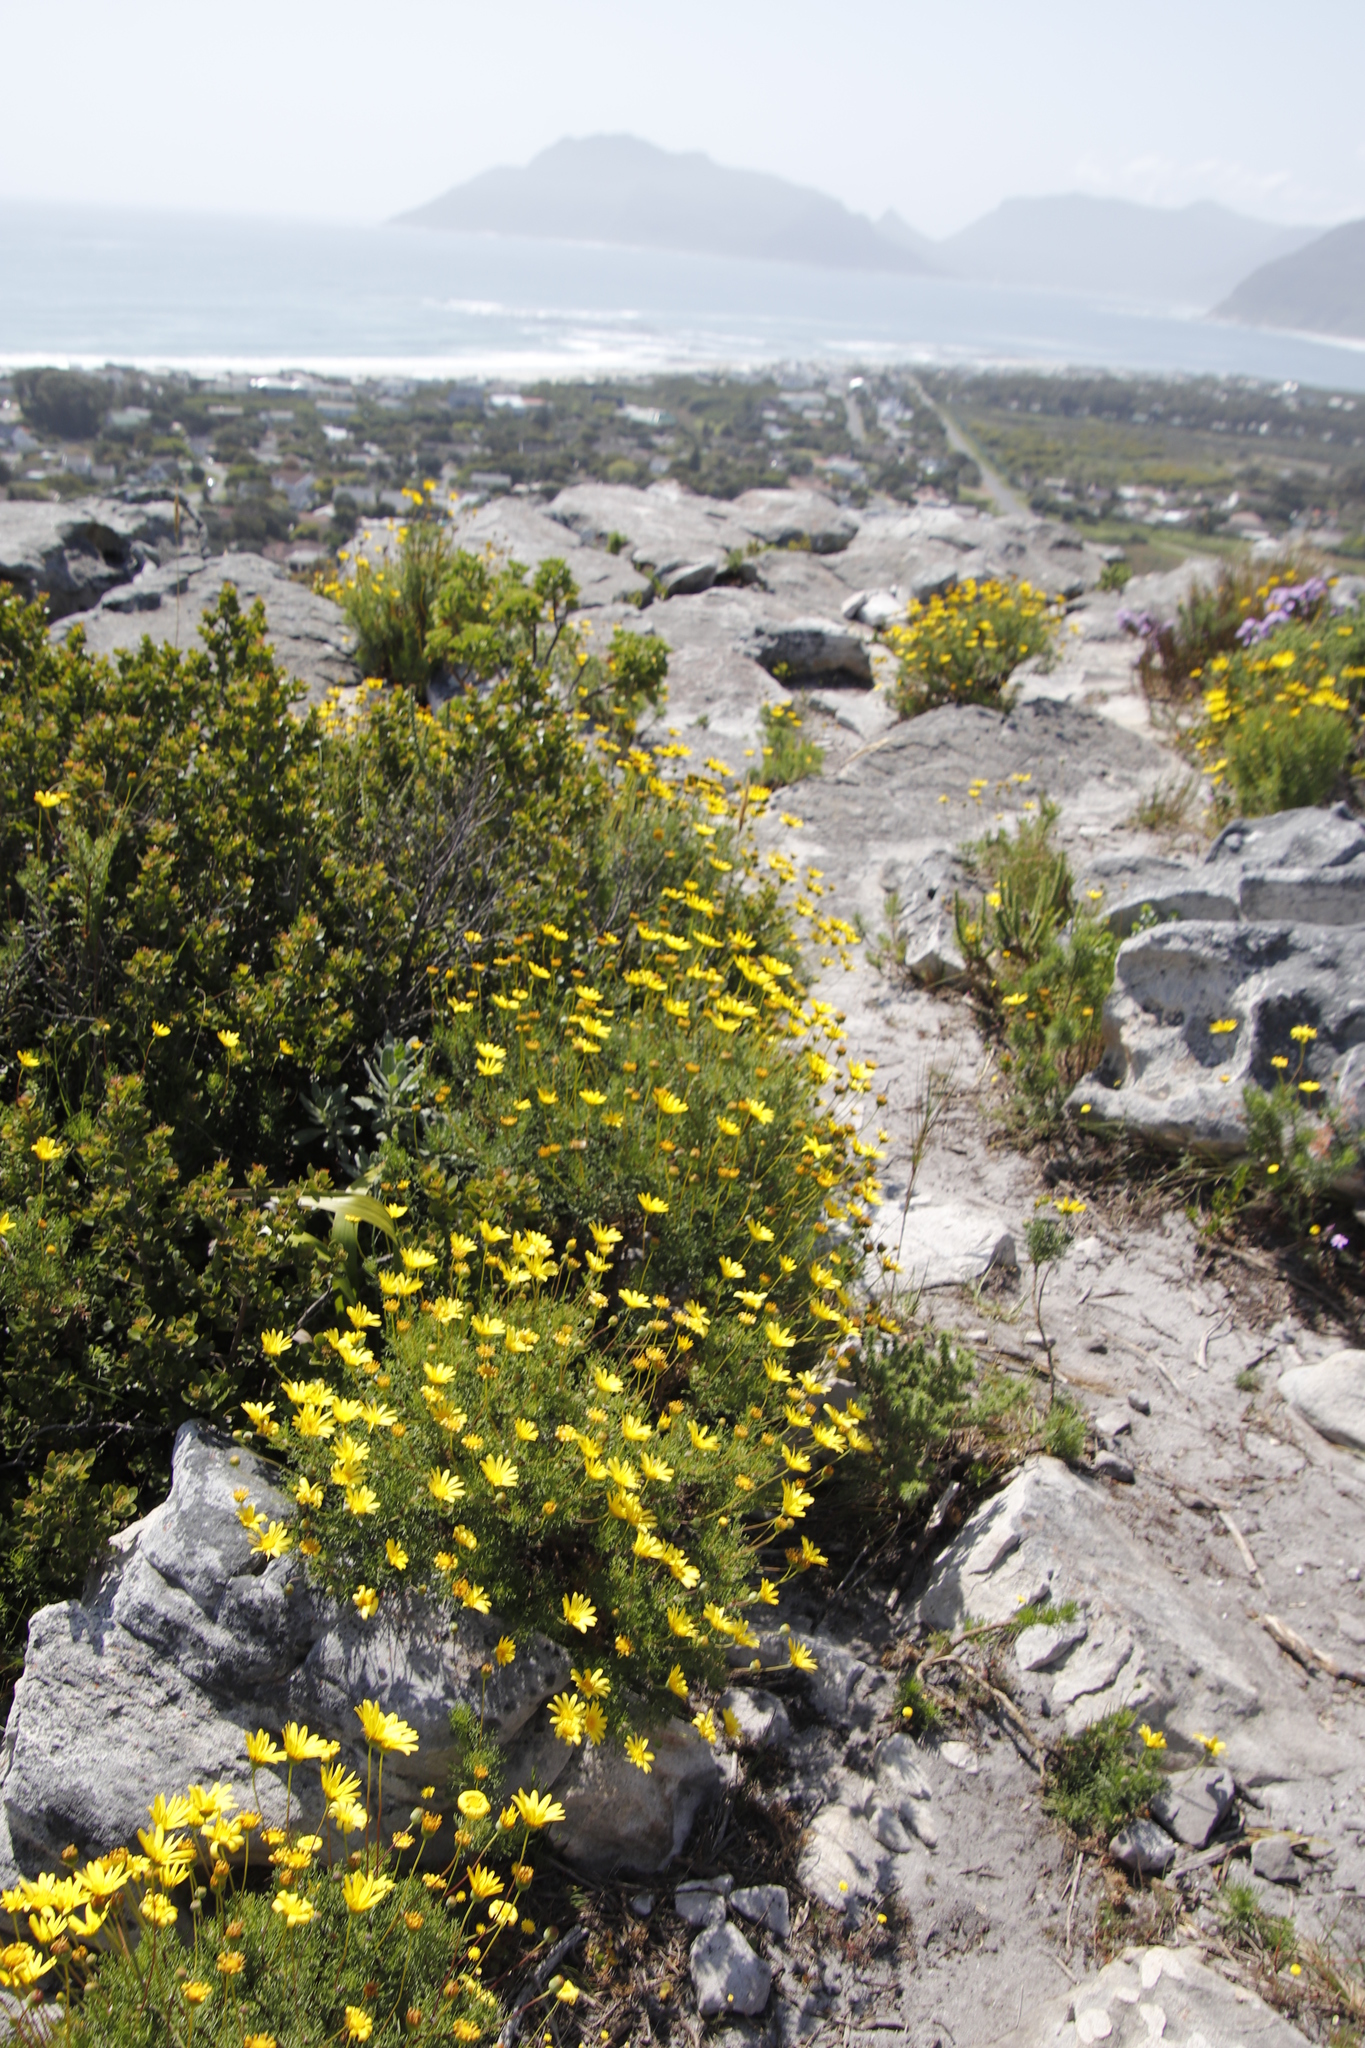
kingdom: Plantae
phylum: Tracheophyta
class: Magnoliopsida
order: Asterales
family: Asteraceae
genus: Euryops
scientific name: Euryops abrotanifolius
